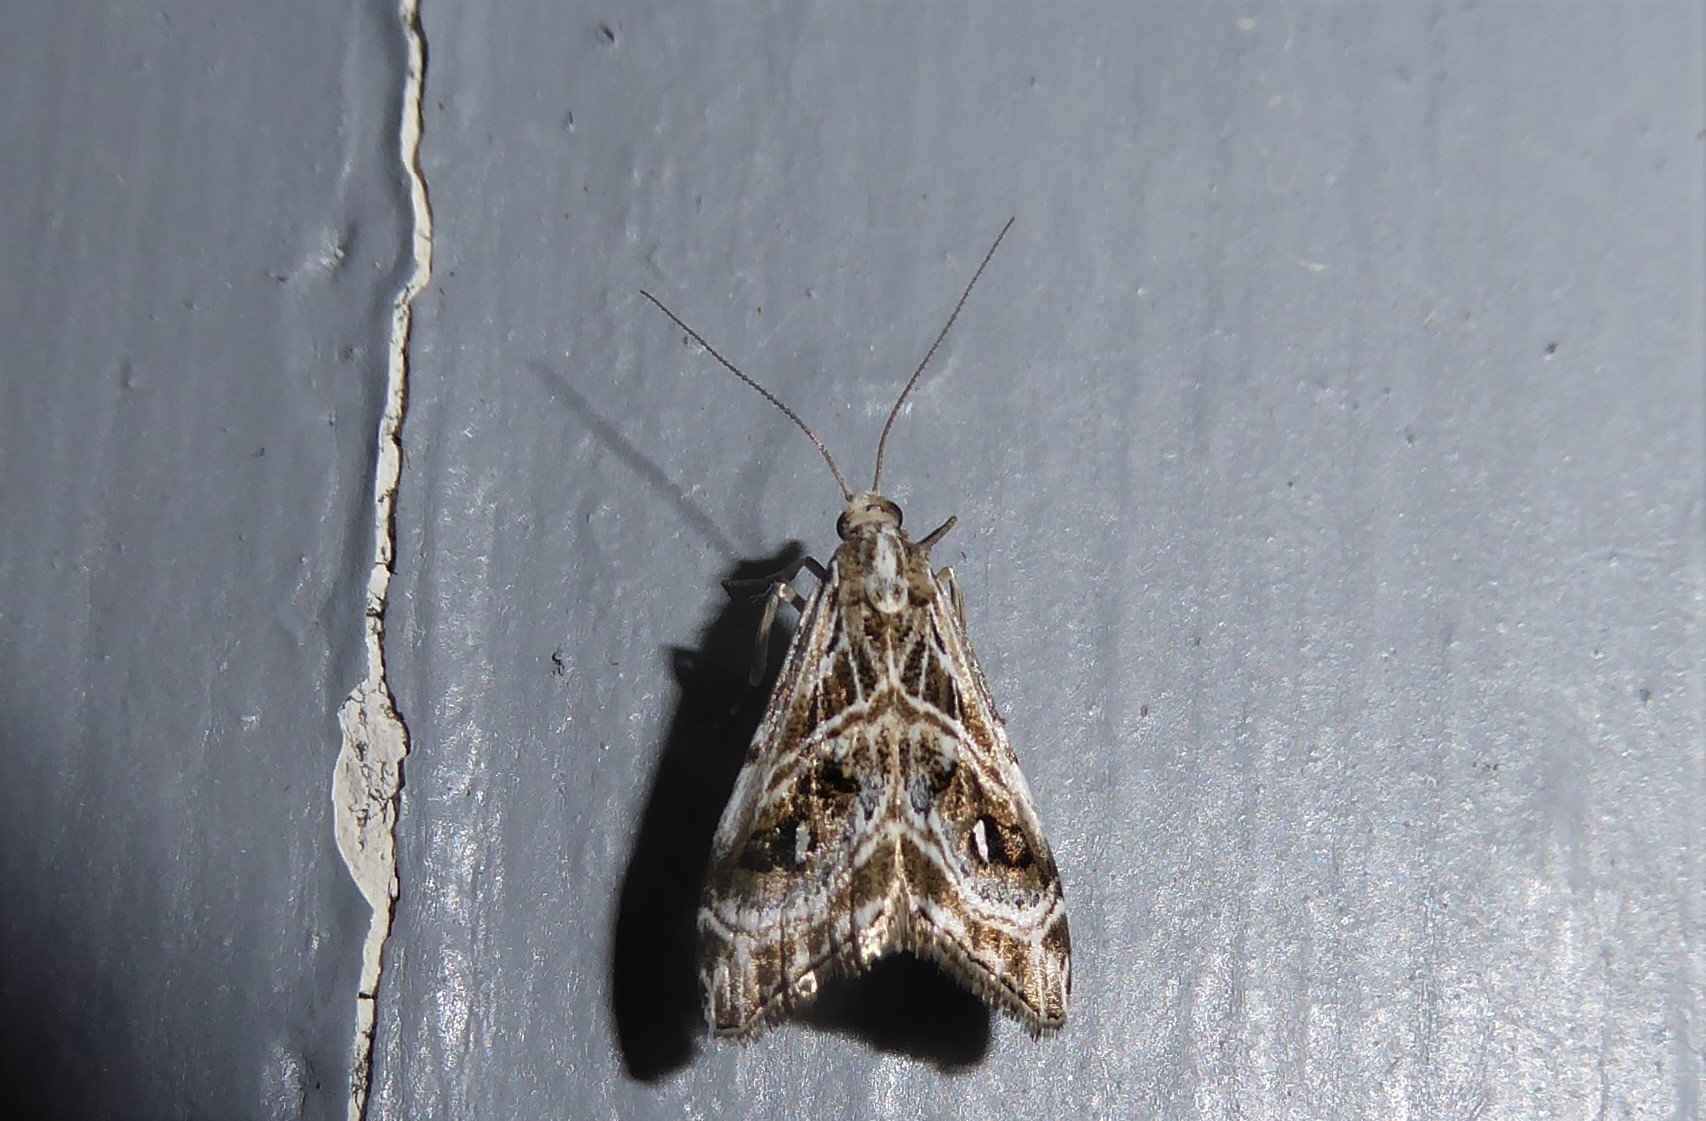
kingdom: Animalia
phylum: Arthropoda
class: Insecta
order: Lepidoptera
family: Crambidae
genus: Gadira
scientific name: Gadira acerella
